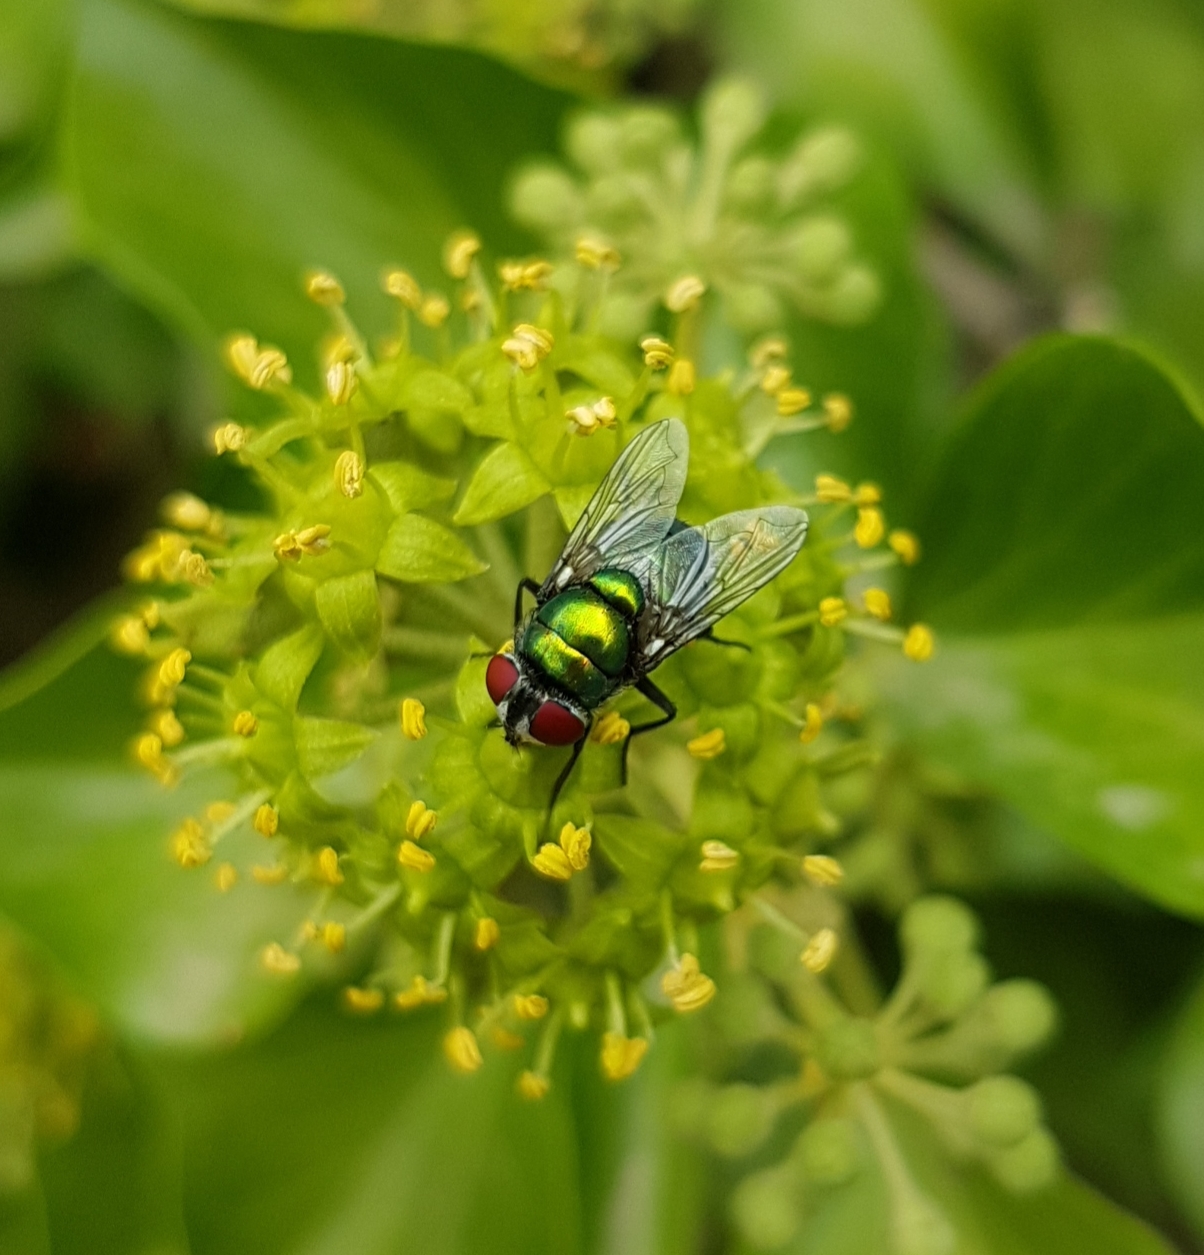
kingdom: Animalia
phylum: Arthropoda
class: Insecta
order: Diptera
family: Calliphoridae
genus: Chrysomya
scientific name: Chrysomya albiceps
